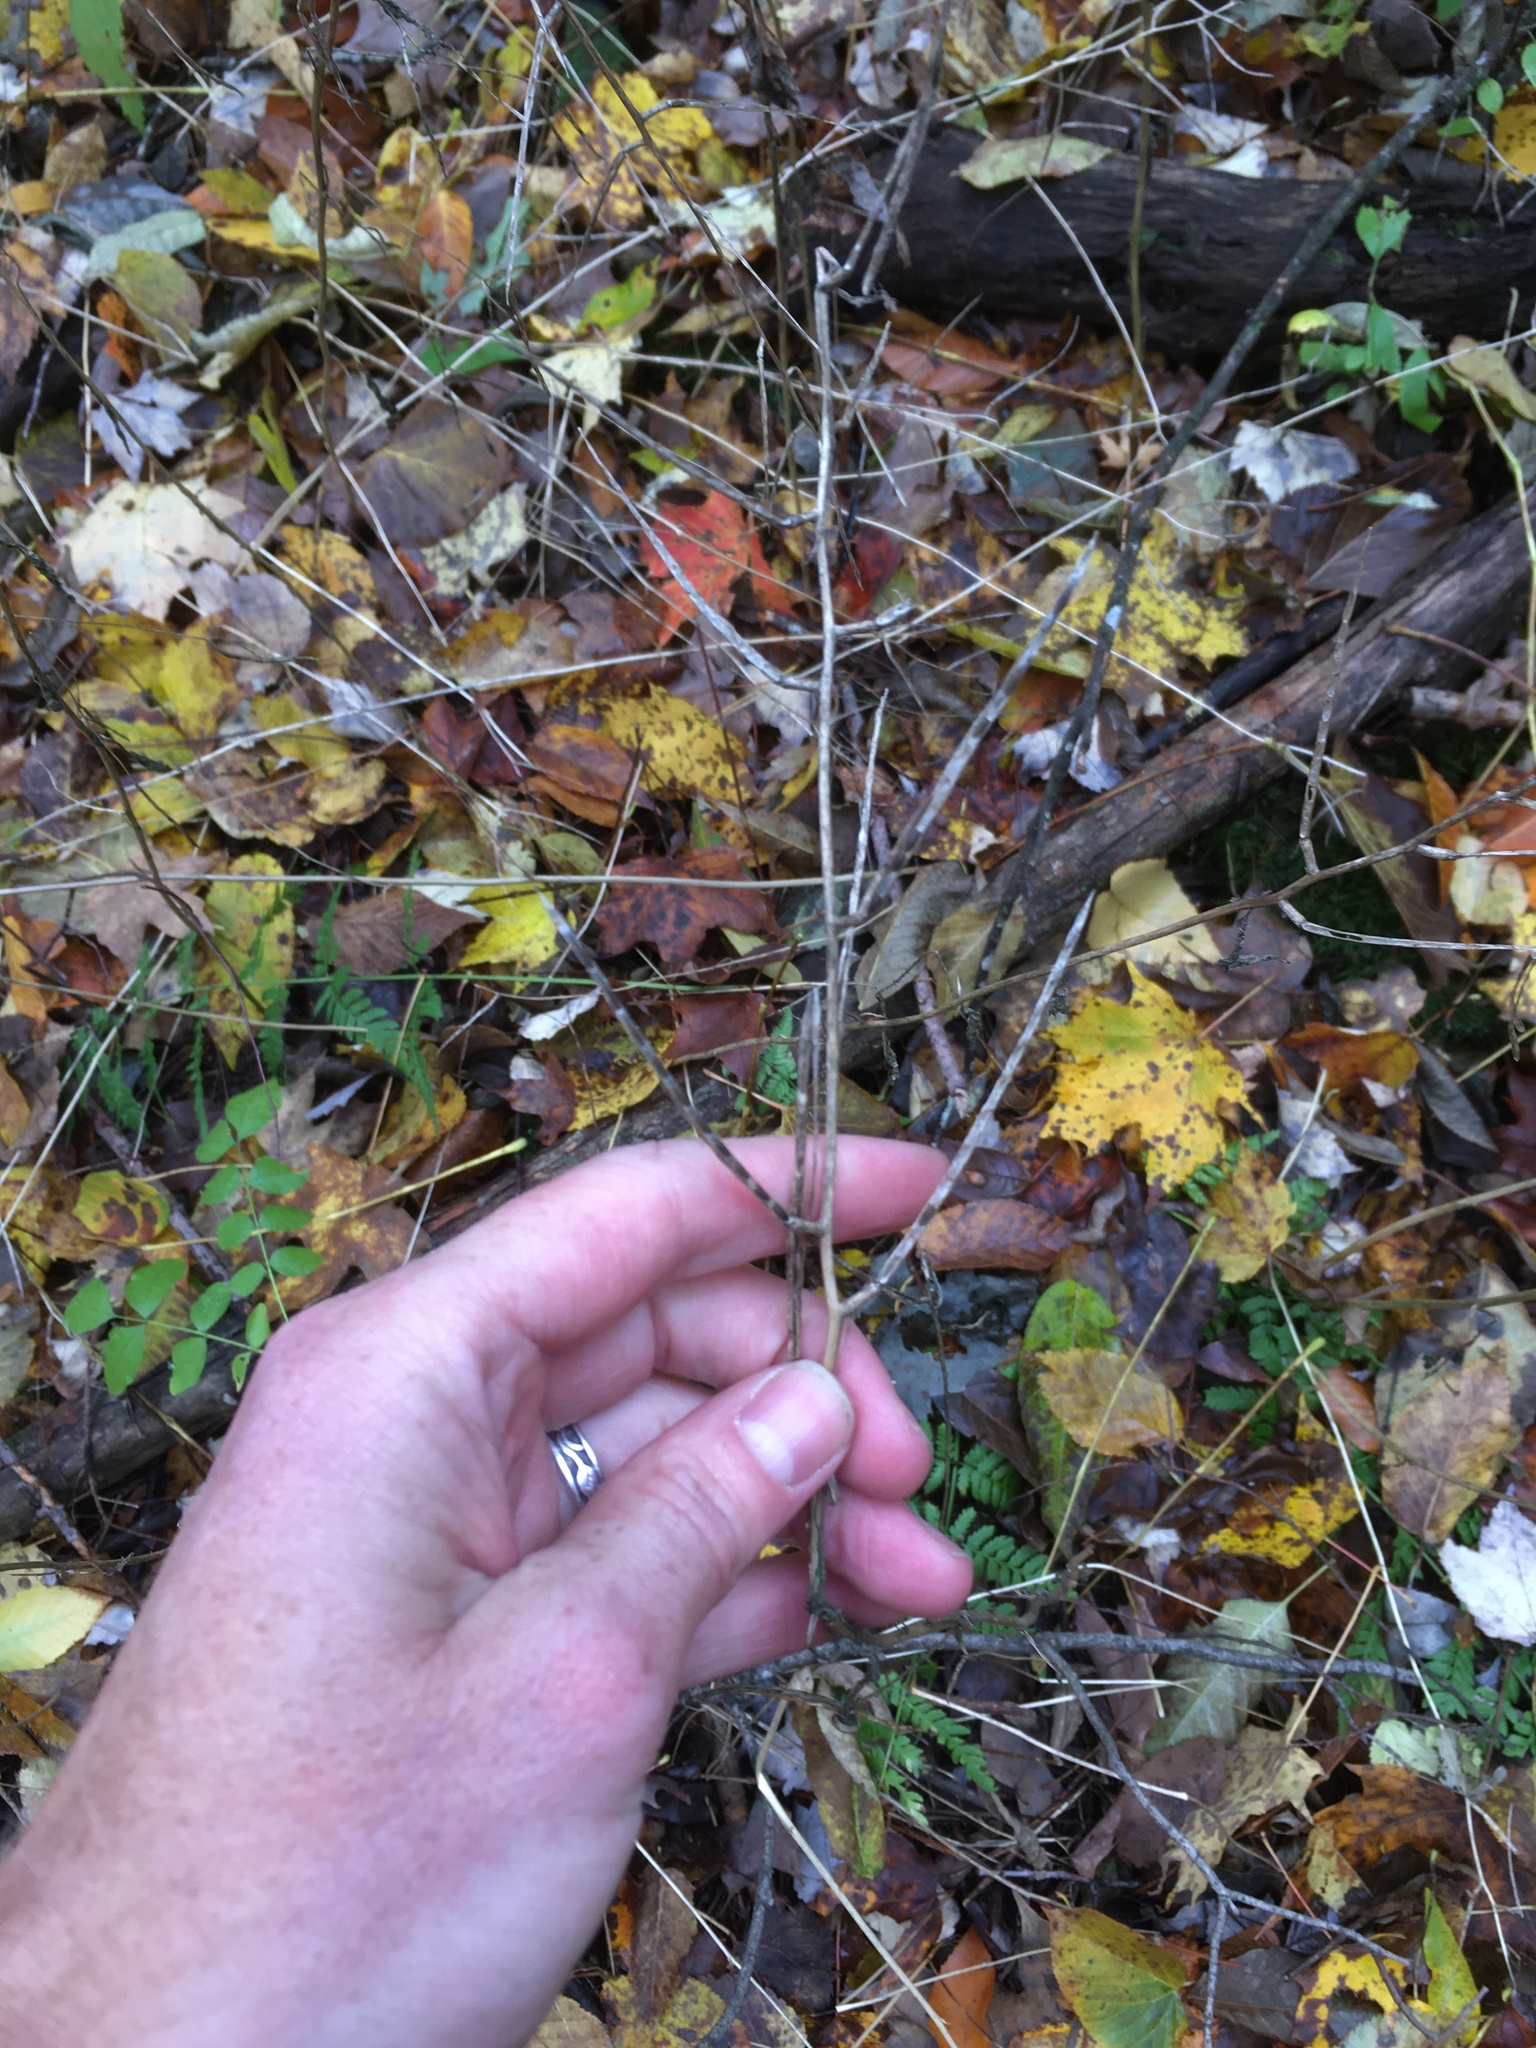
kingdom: Plantae
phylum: Tracheophyta
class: Magnoliopsida
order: Brassicales
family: Brassicaceae
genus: Alliaria
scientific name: Alliaria petiolata
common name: Garlic mustard
